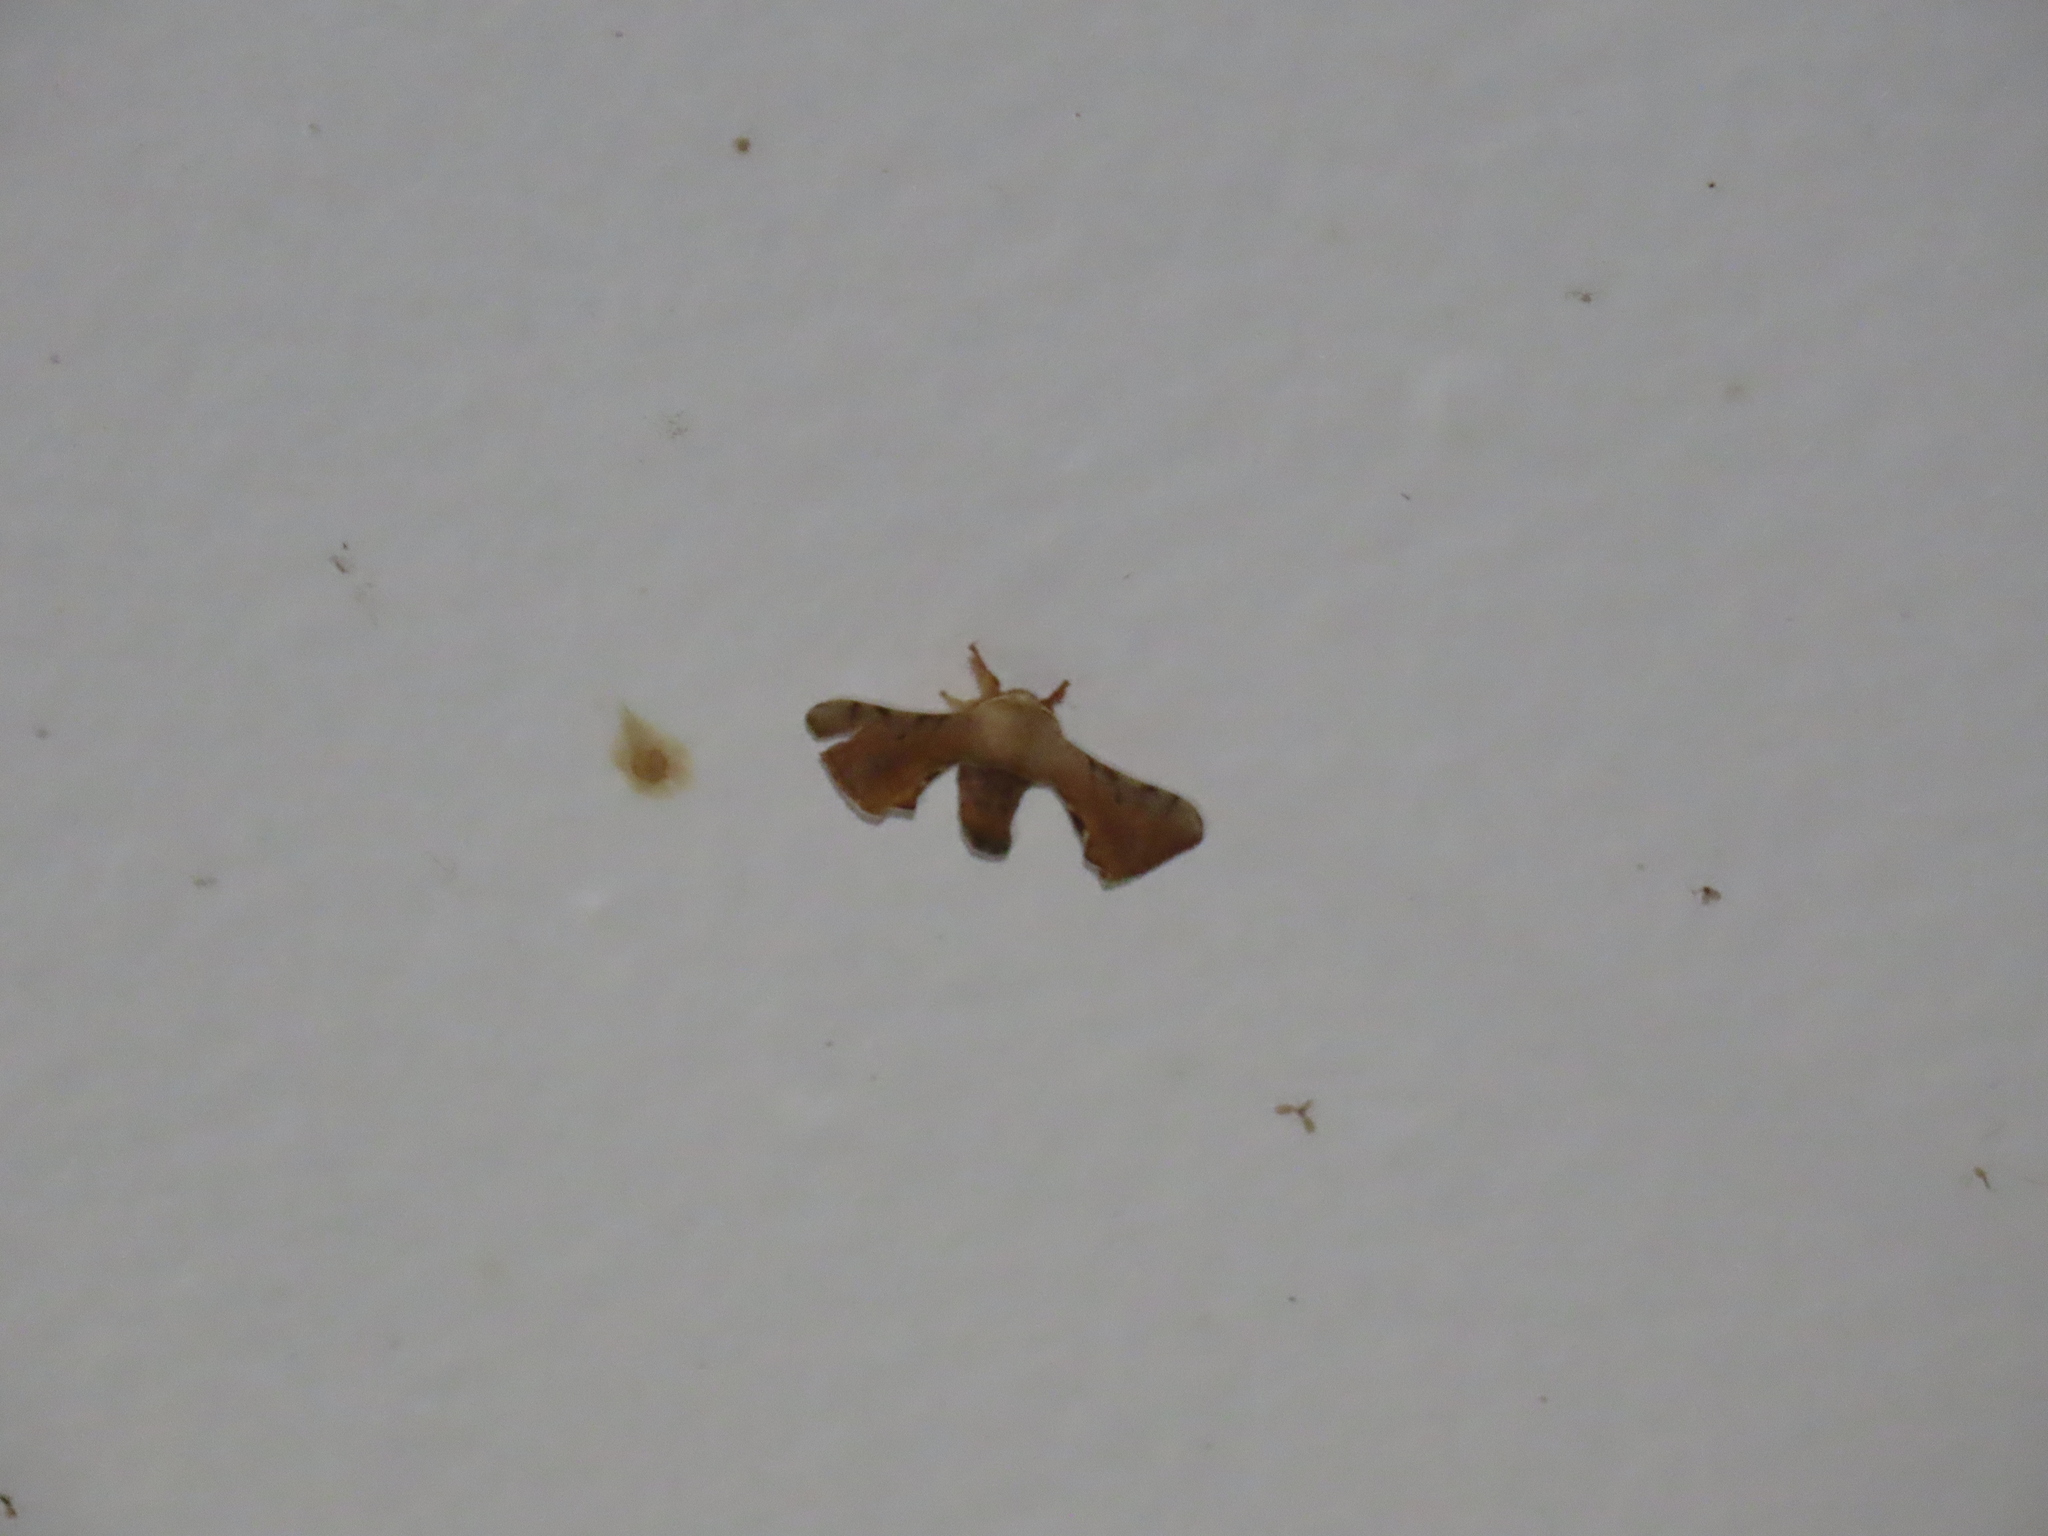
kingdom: Animalia
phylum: Arthropoda
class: Insecta
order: Lepidoptera
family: Bombycidae
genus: Ocinara
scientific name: Ocinara ficicola
